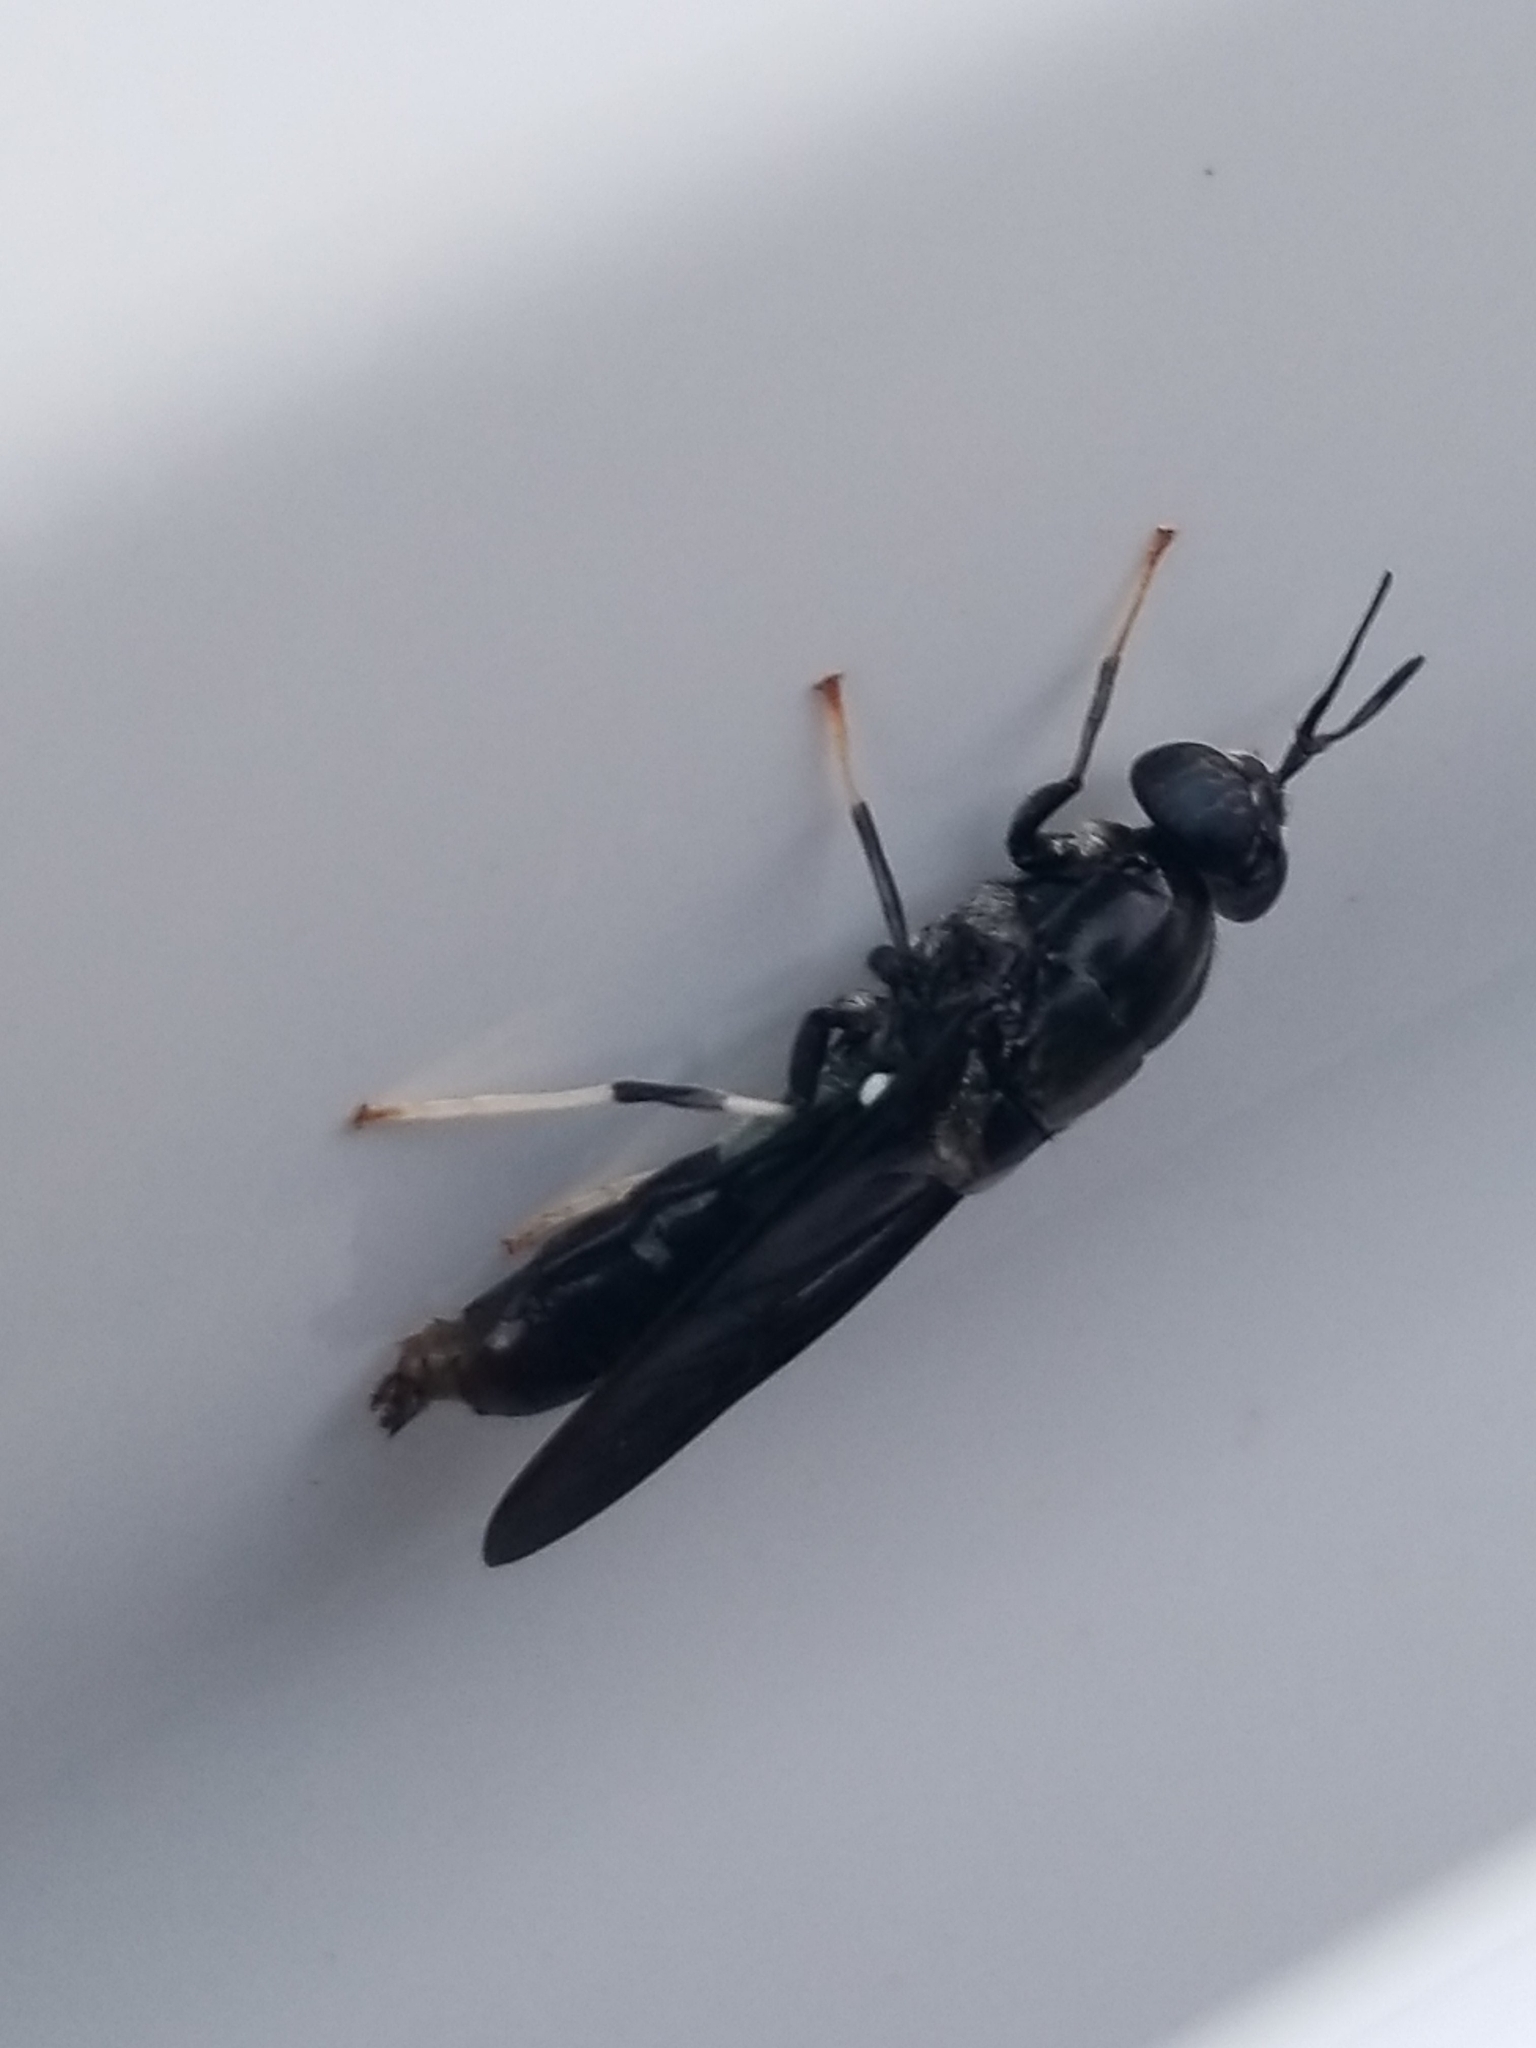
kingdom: Animalia
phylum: Arthropoda
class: Insecta
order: Diptera
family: Stratiomyidae
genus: Hermetia
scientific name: Hermetia illucens
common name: Black soldier fly
